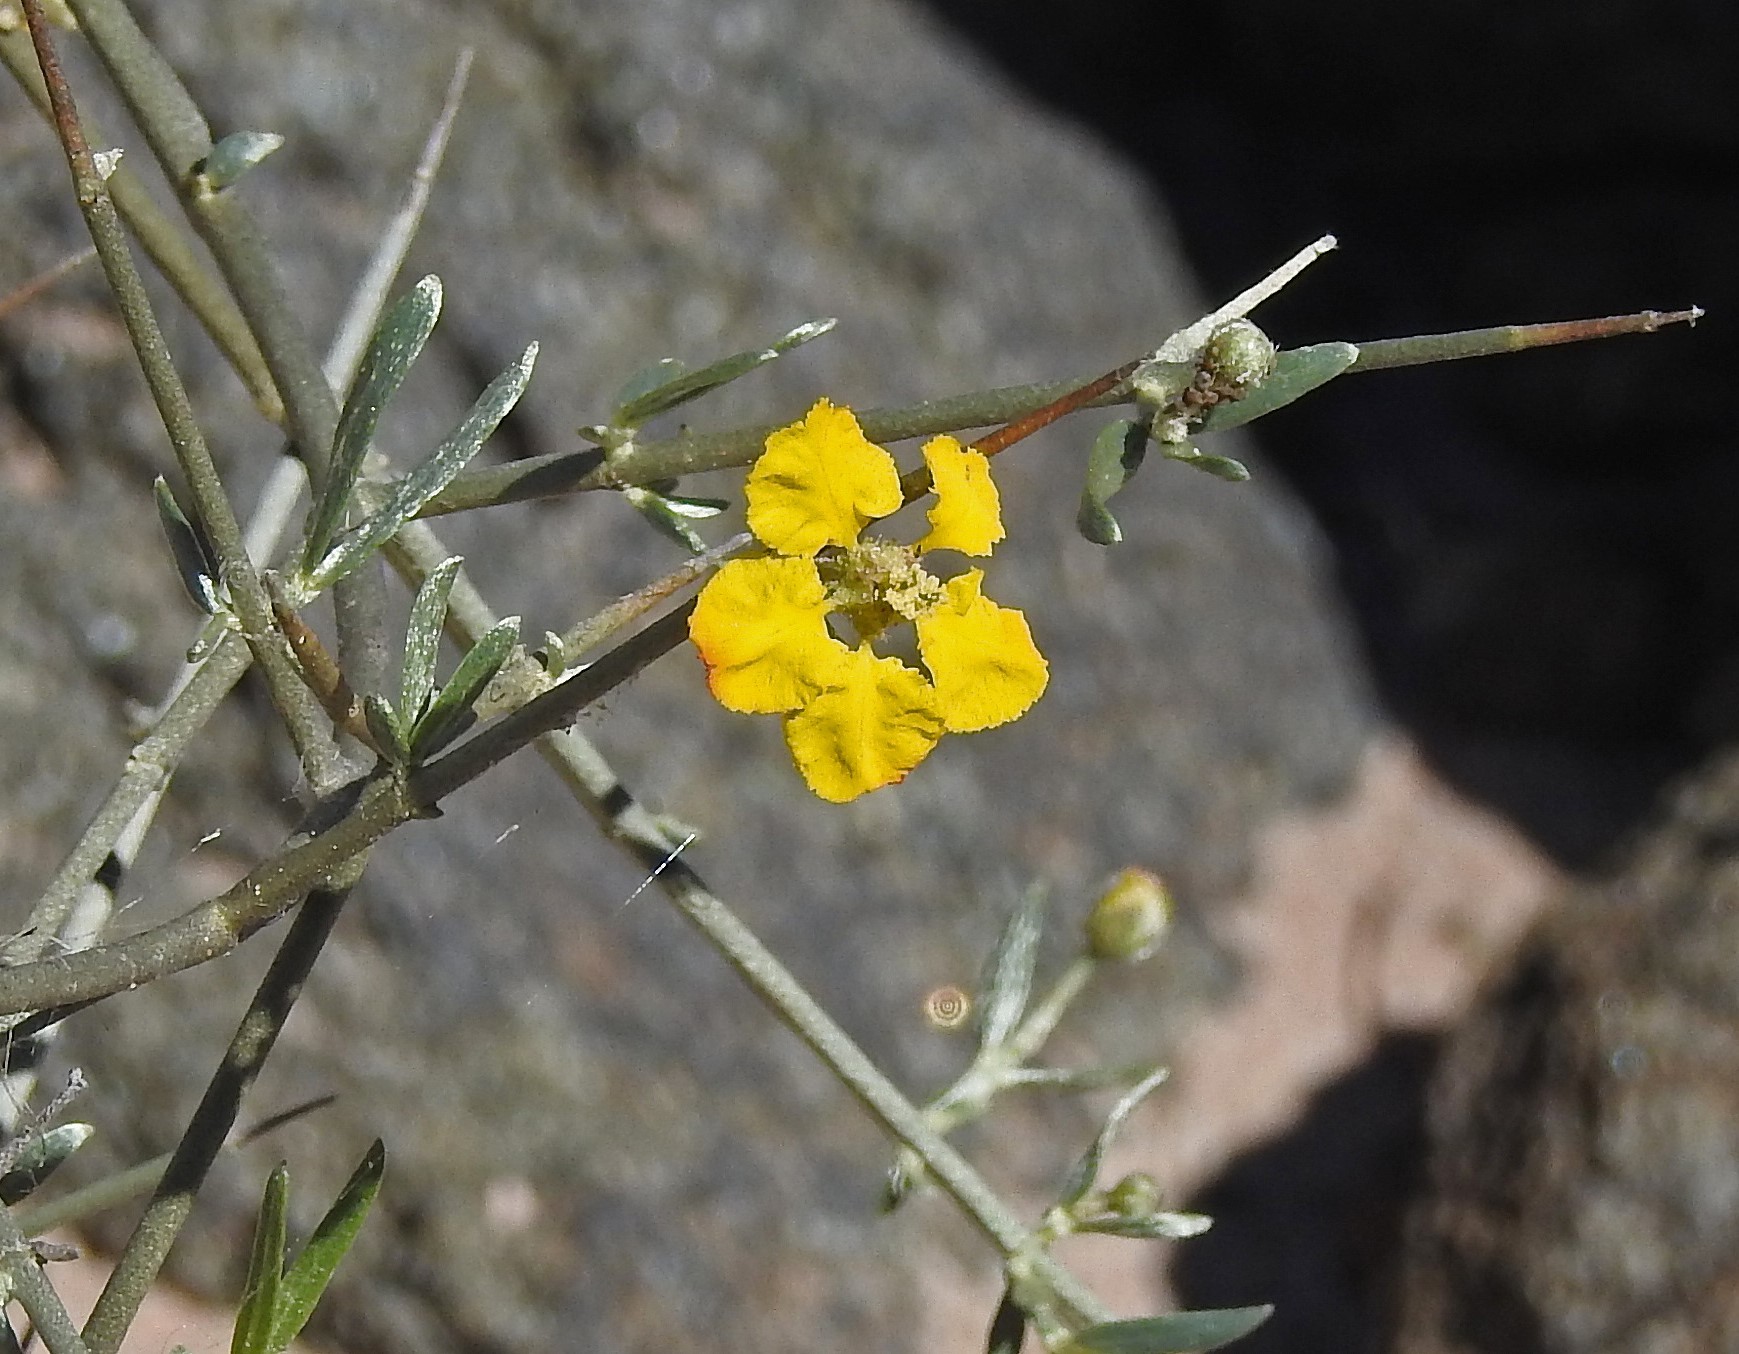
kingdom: Plantae
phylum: Tracheophyta
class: Magnoliopsida
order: Malpighiales
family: Malpighiaceae
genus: Tricomaria
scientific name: Tricomaria usillo
